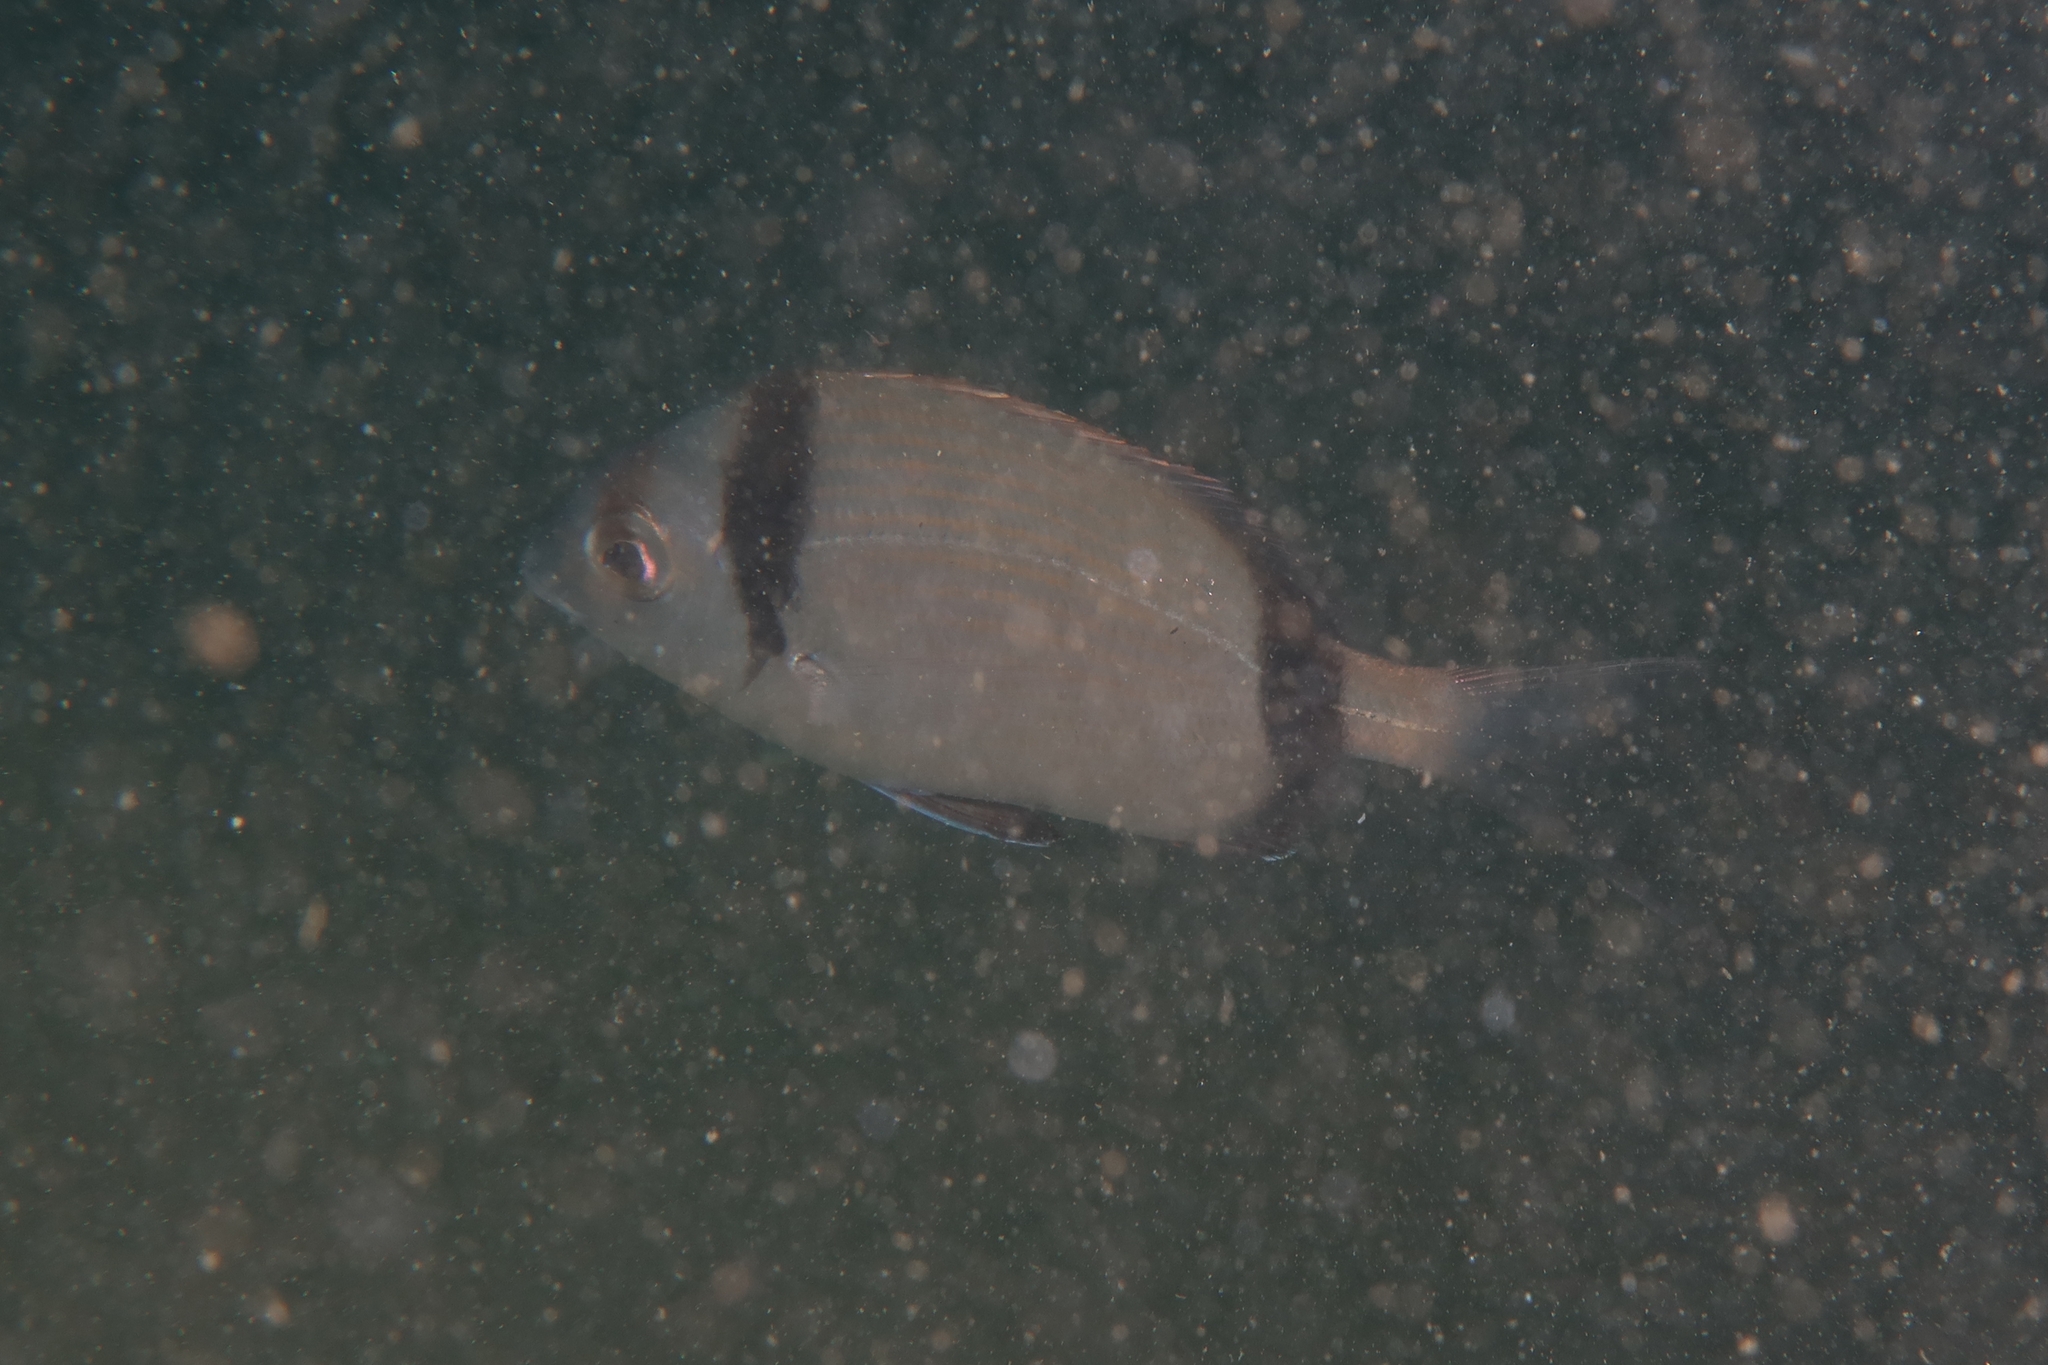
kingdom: Animalia
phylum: Chordata
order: Perciformes
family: Sparidae
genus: Diplodus
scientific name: Diplodus vulgaris
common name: Common two-banded seabream
